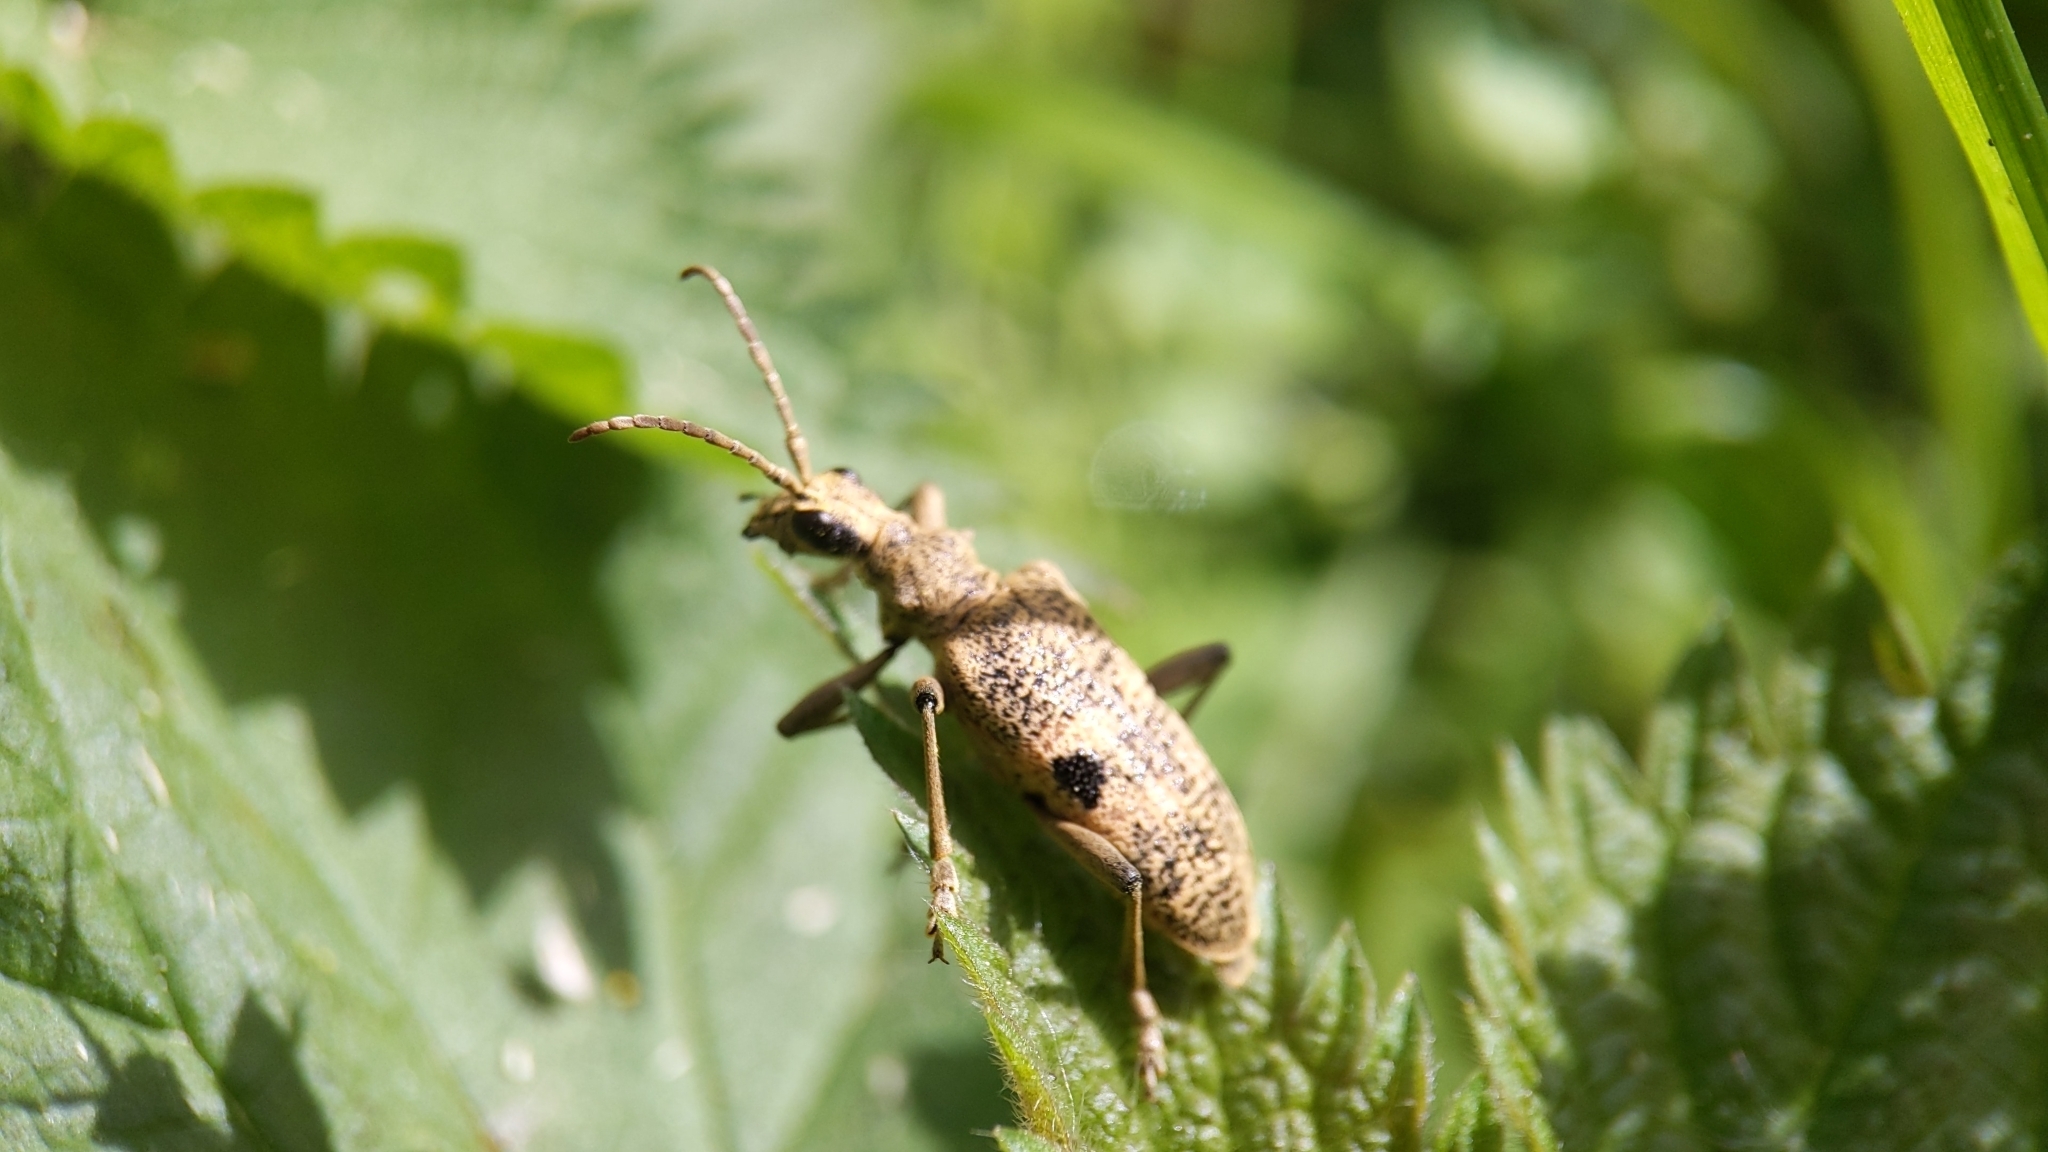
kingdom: Animalia
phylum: Arthropoda
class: Insecta
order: Coleoptera
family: Cerambycidae
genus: Rhagium
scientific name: Rhagium mordax
